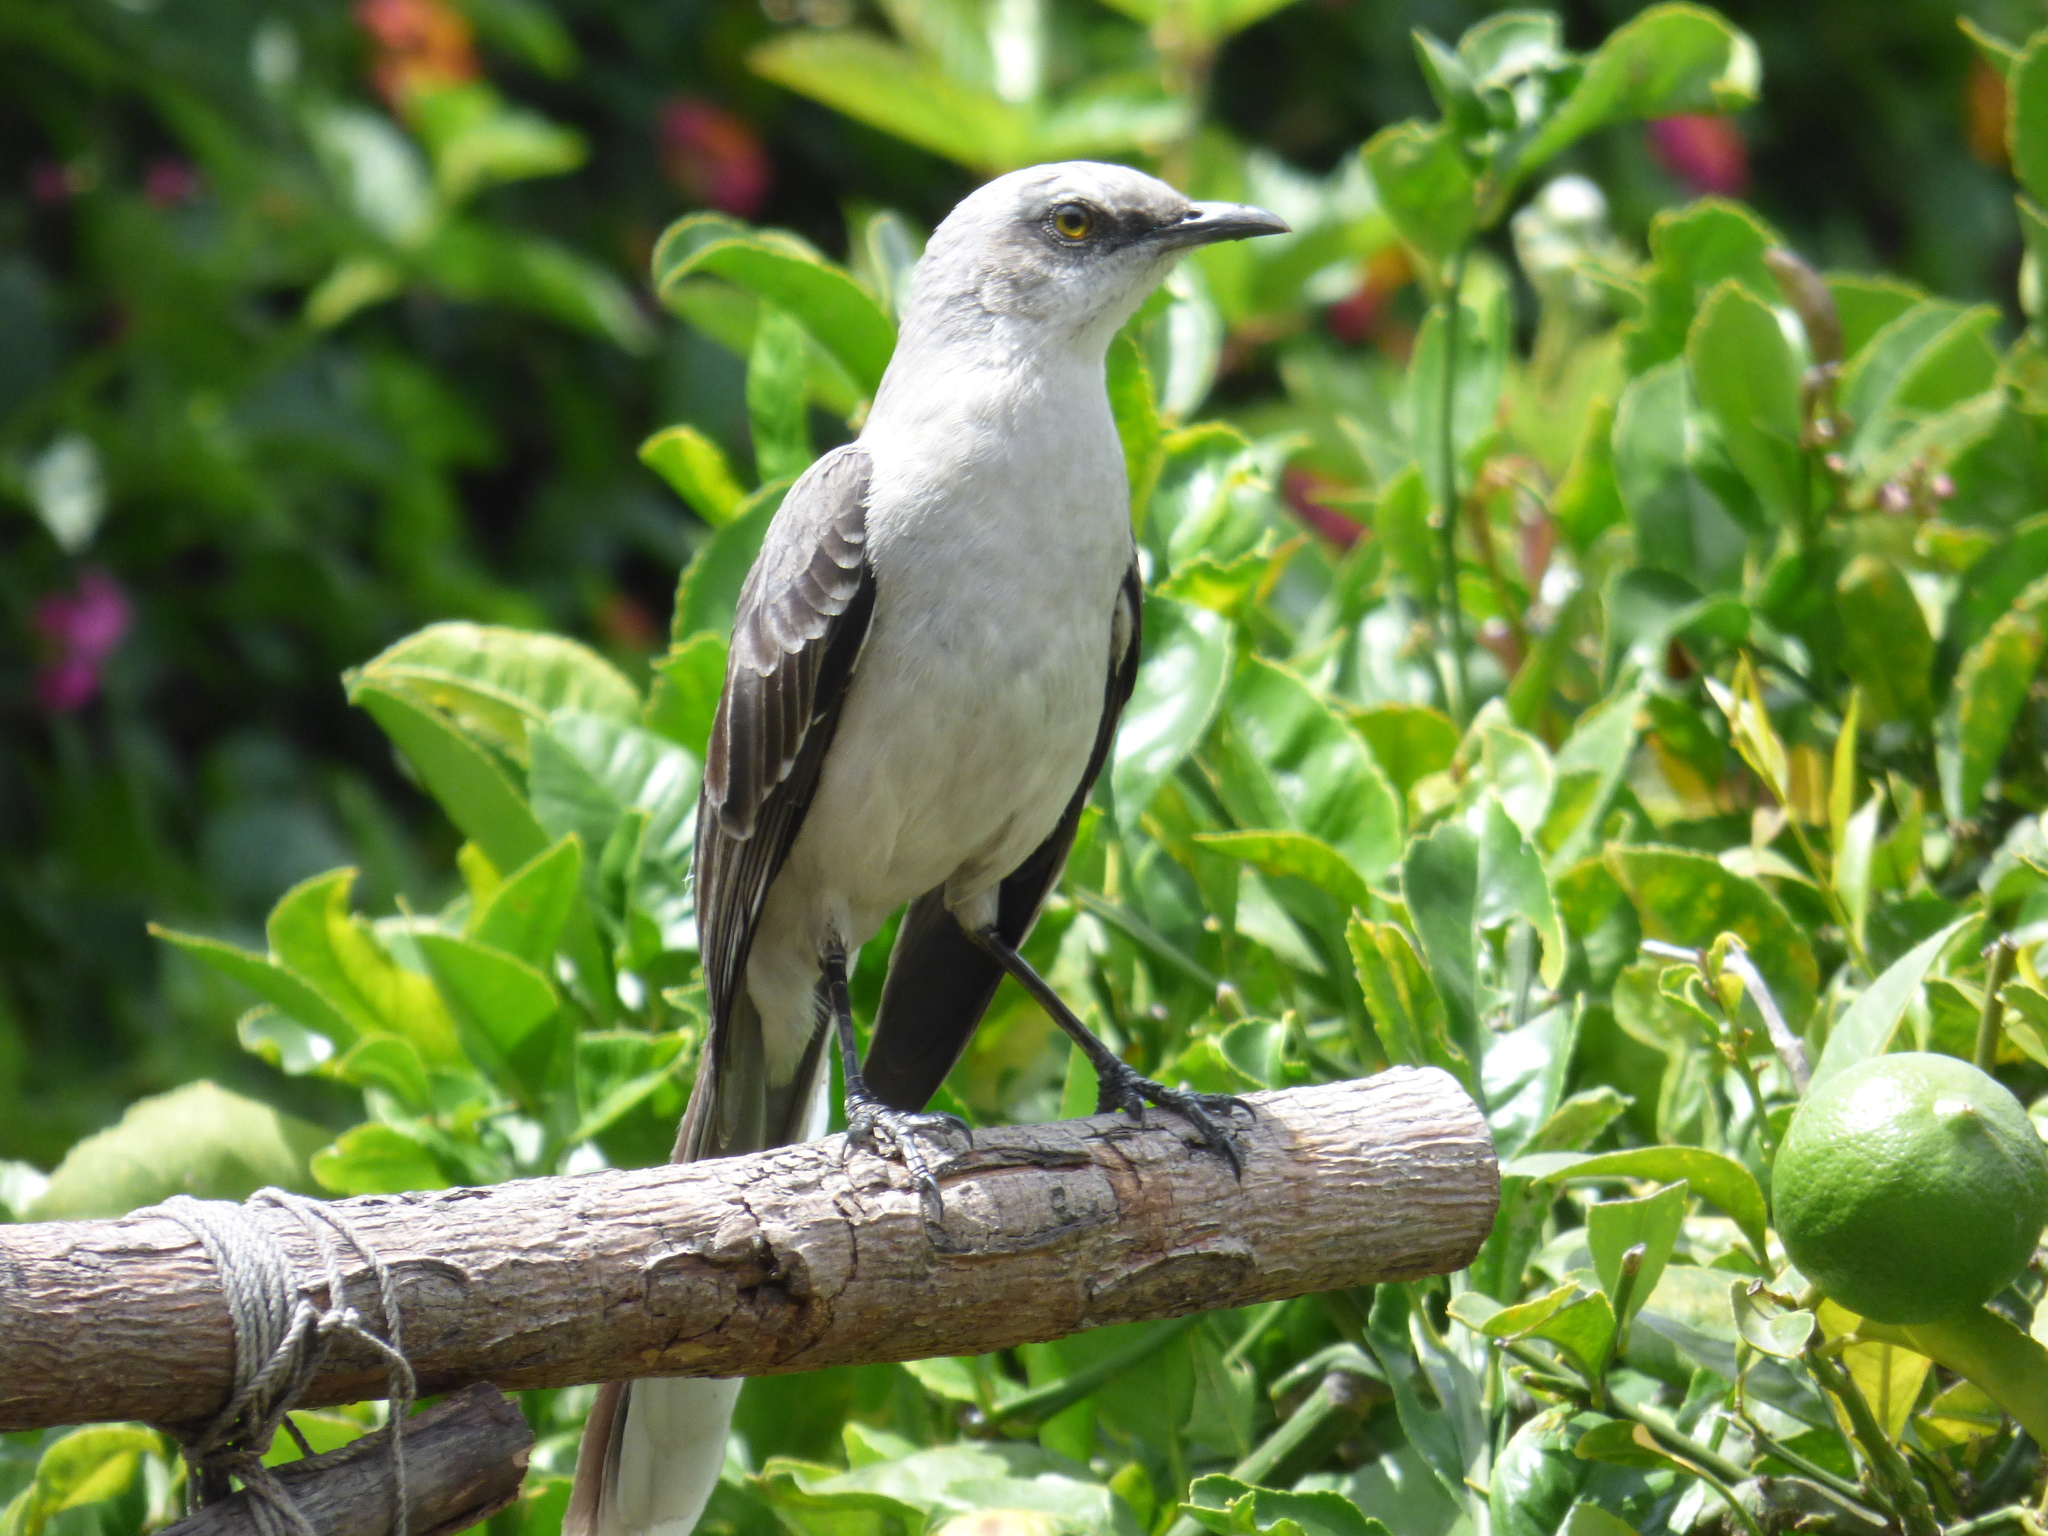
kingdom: Animalia
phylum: Chordata
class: Aves
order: Passeriformes
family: Mimidae
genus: Mimus
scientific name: Mimus gilvus
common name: Tropical mockingbird
